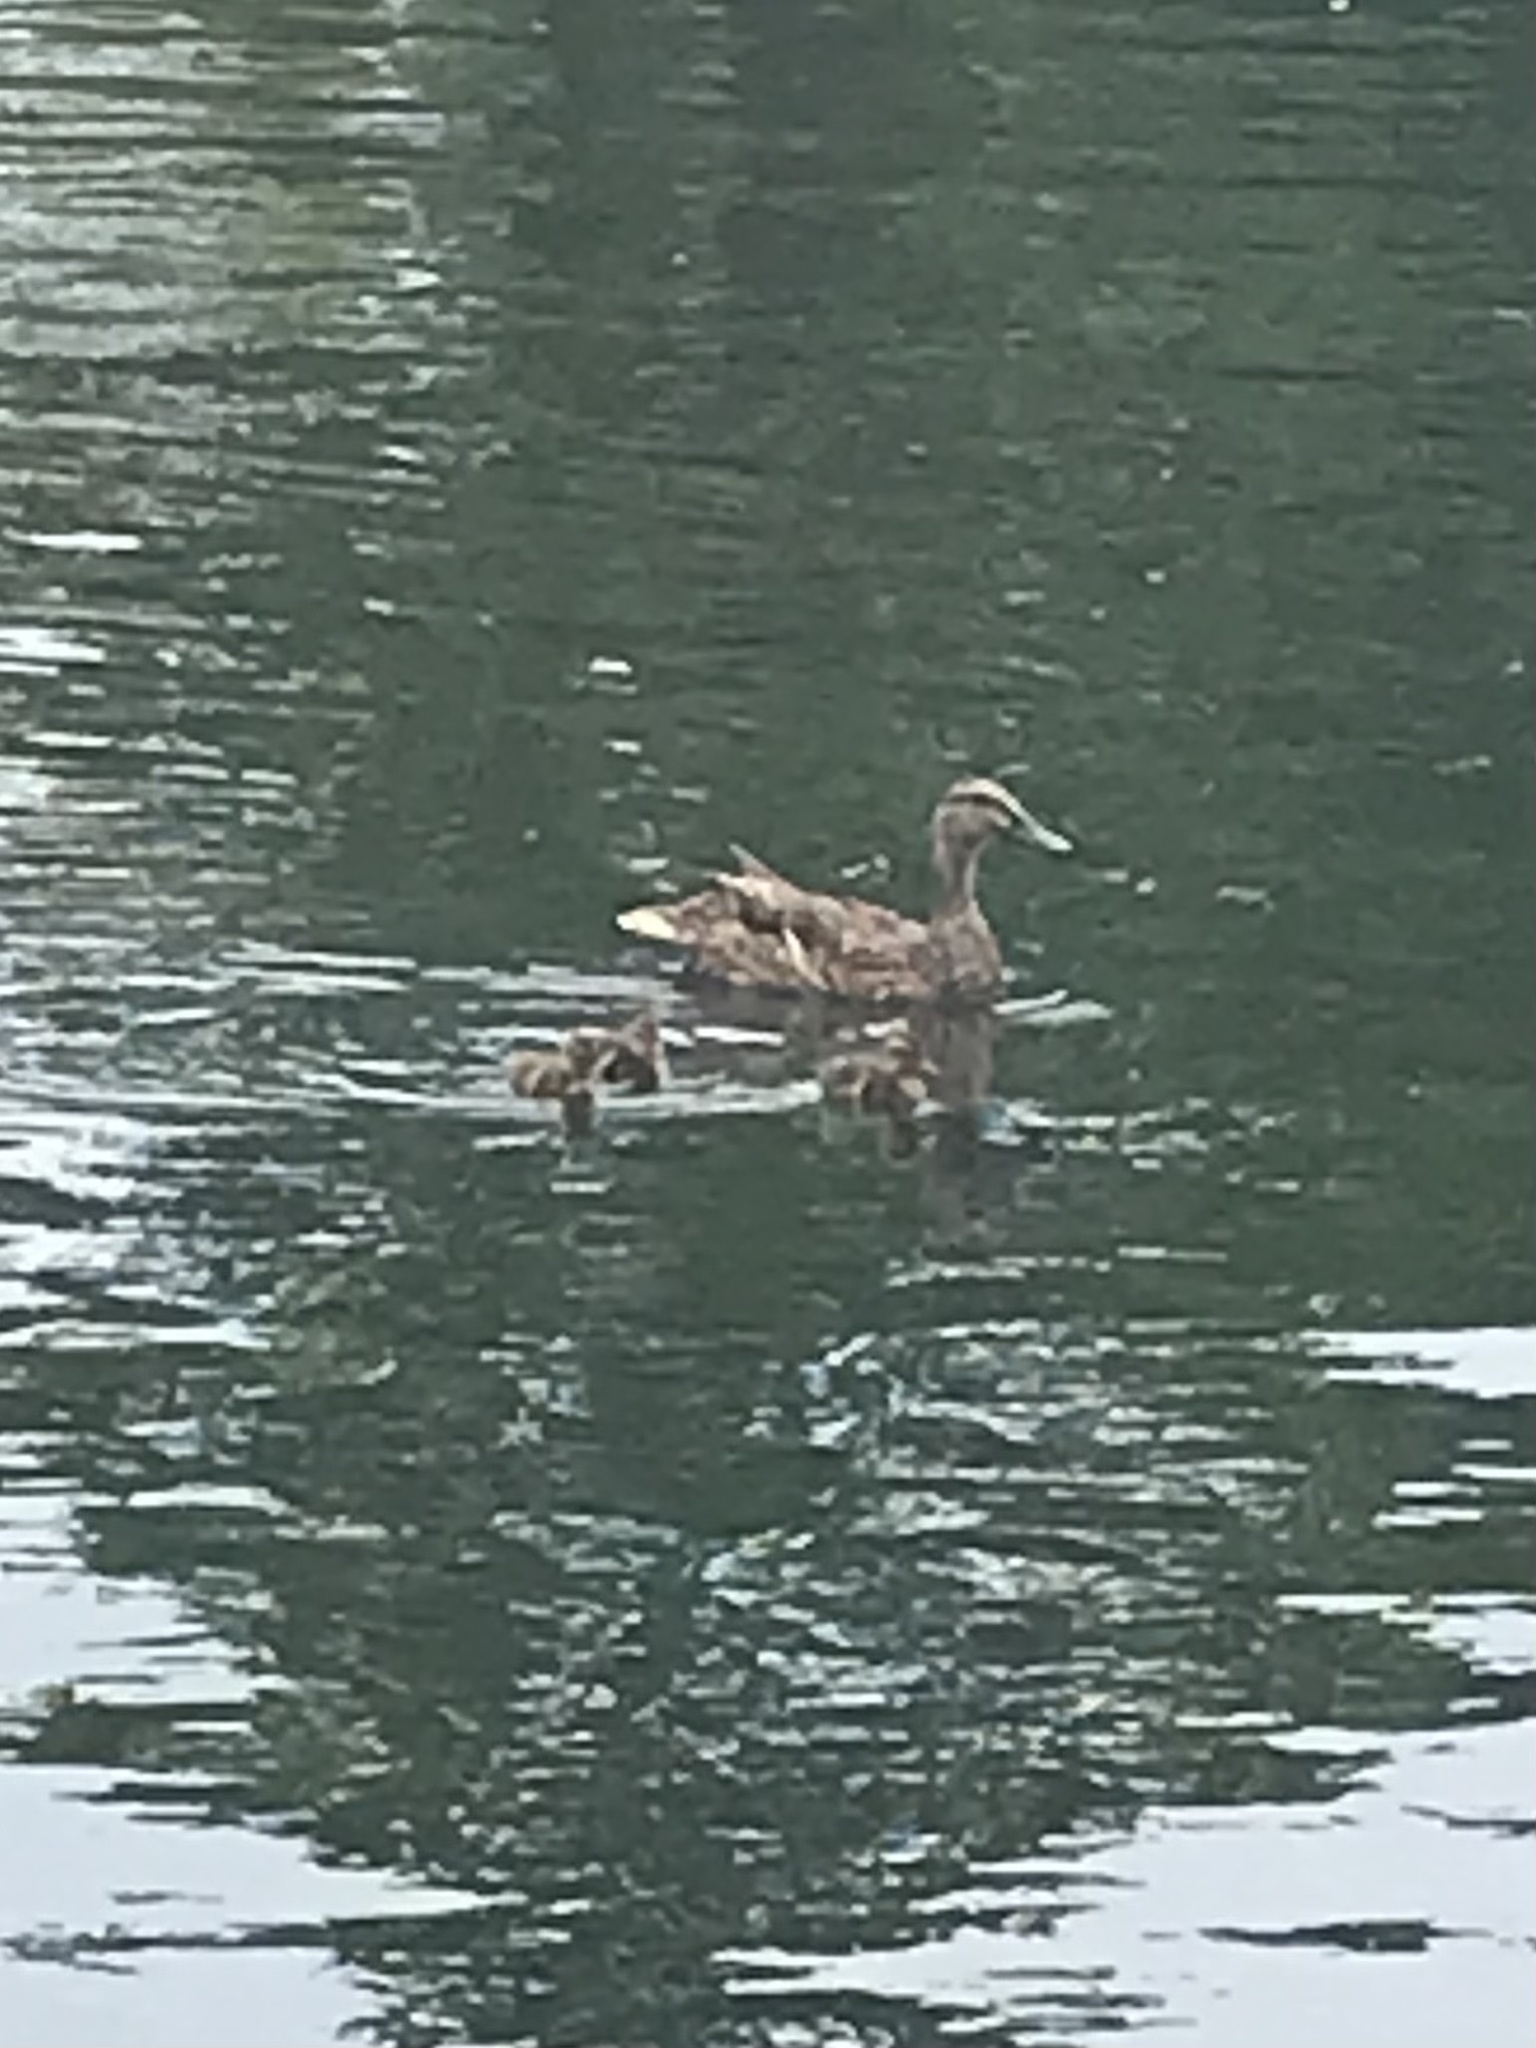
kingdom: Animalia
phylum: Chordata
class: Aves
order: Anseriformes
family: Anatidae
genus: Anas
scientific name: Anas platyrhynchos
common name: Mallard
